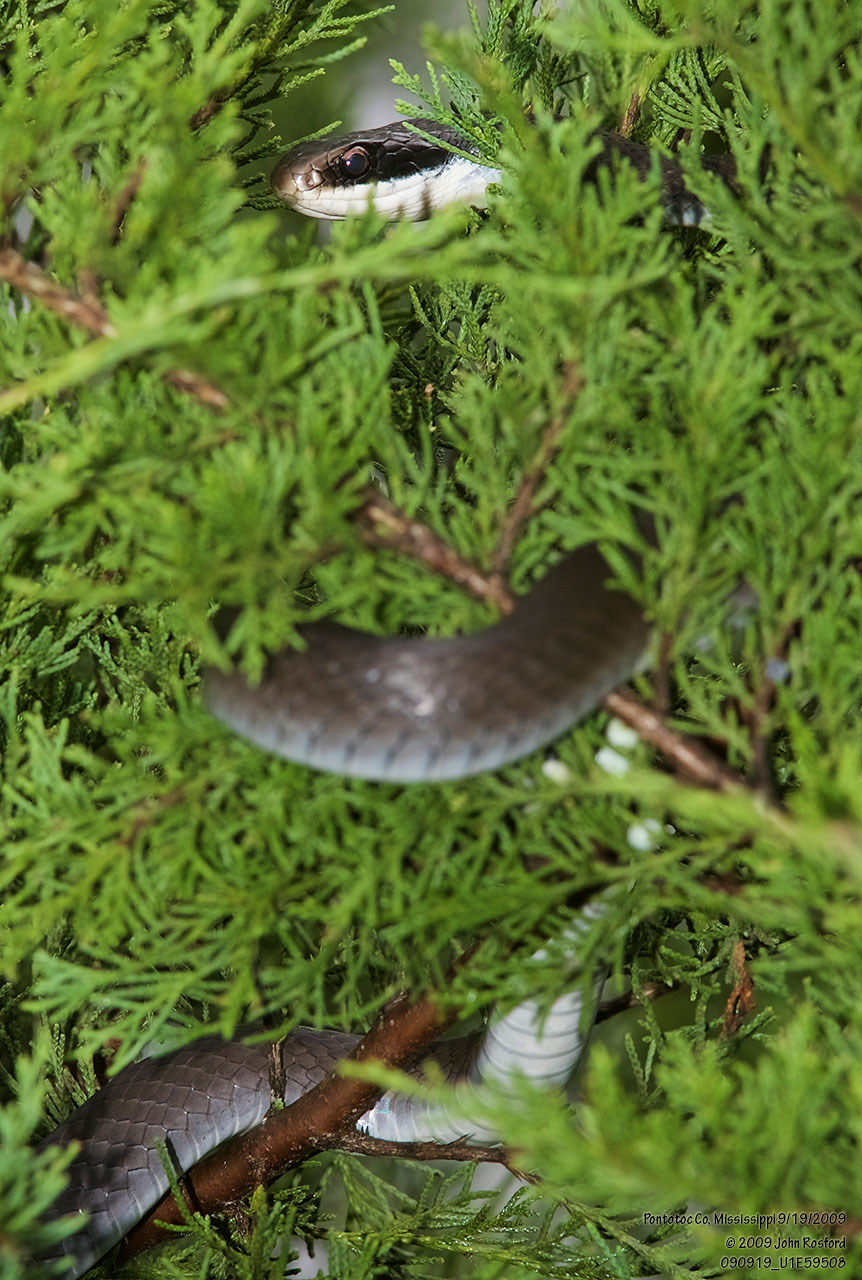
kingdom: Animalia
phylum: Chordata
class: Squamata
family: Colubridae
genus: Coluber
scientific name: Coluber constrictor
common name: Eastern racer
